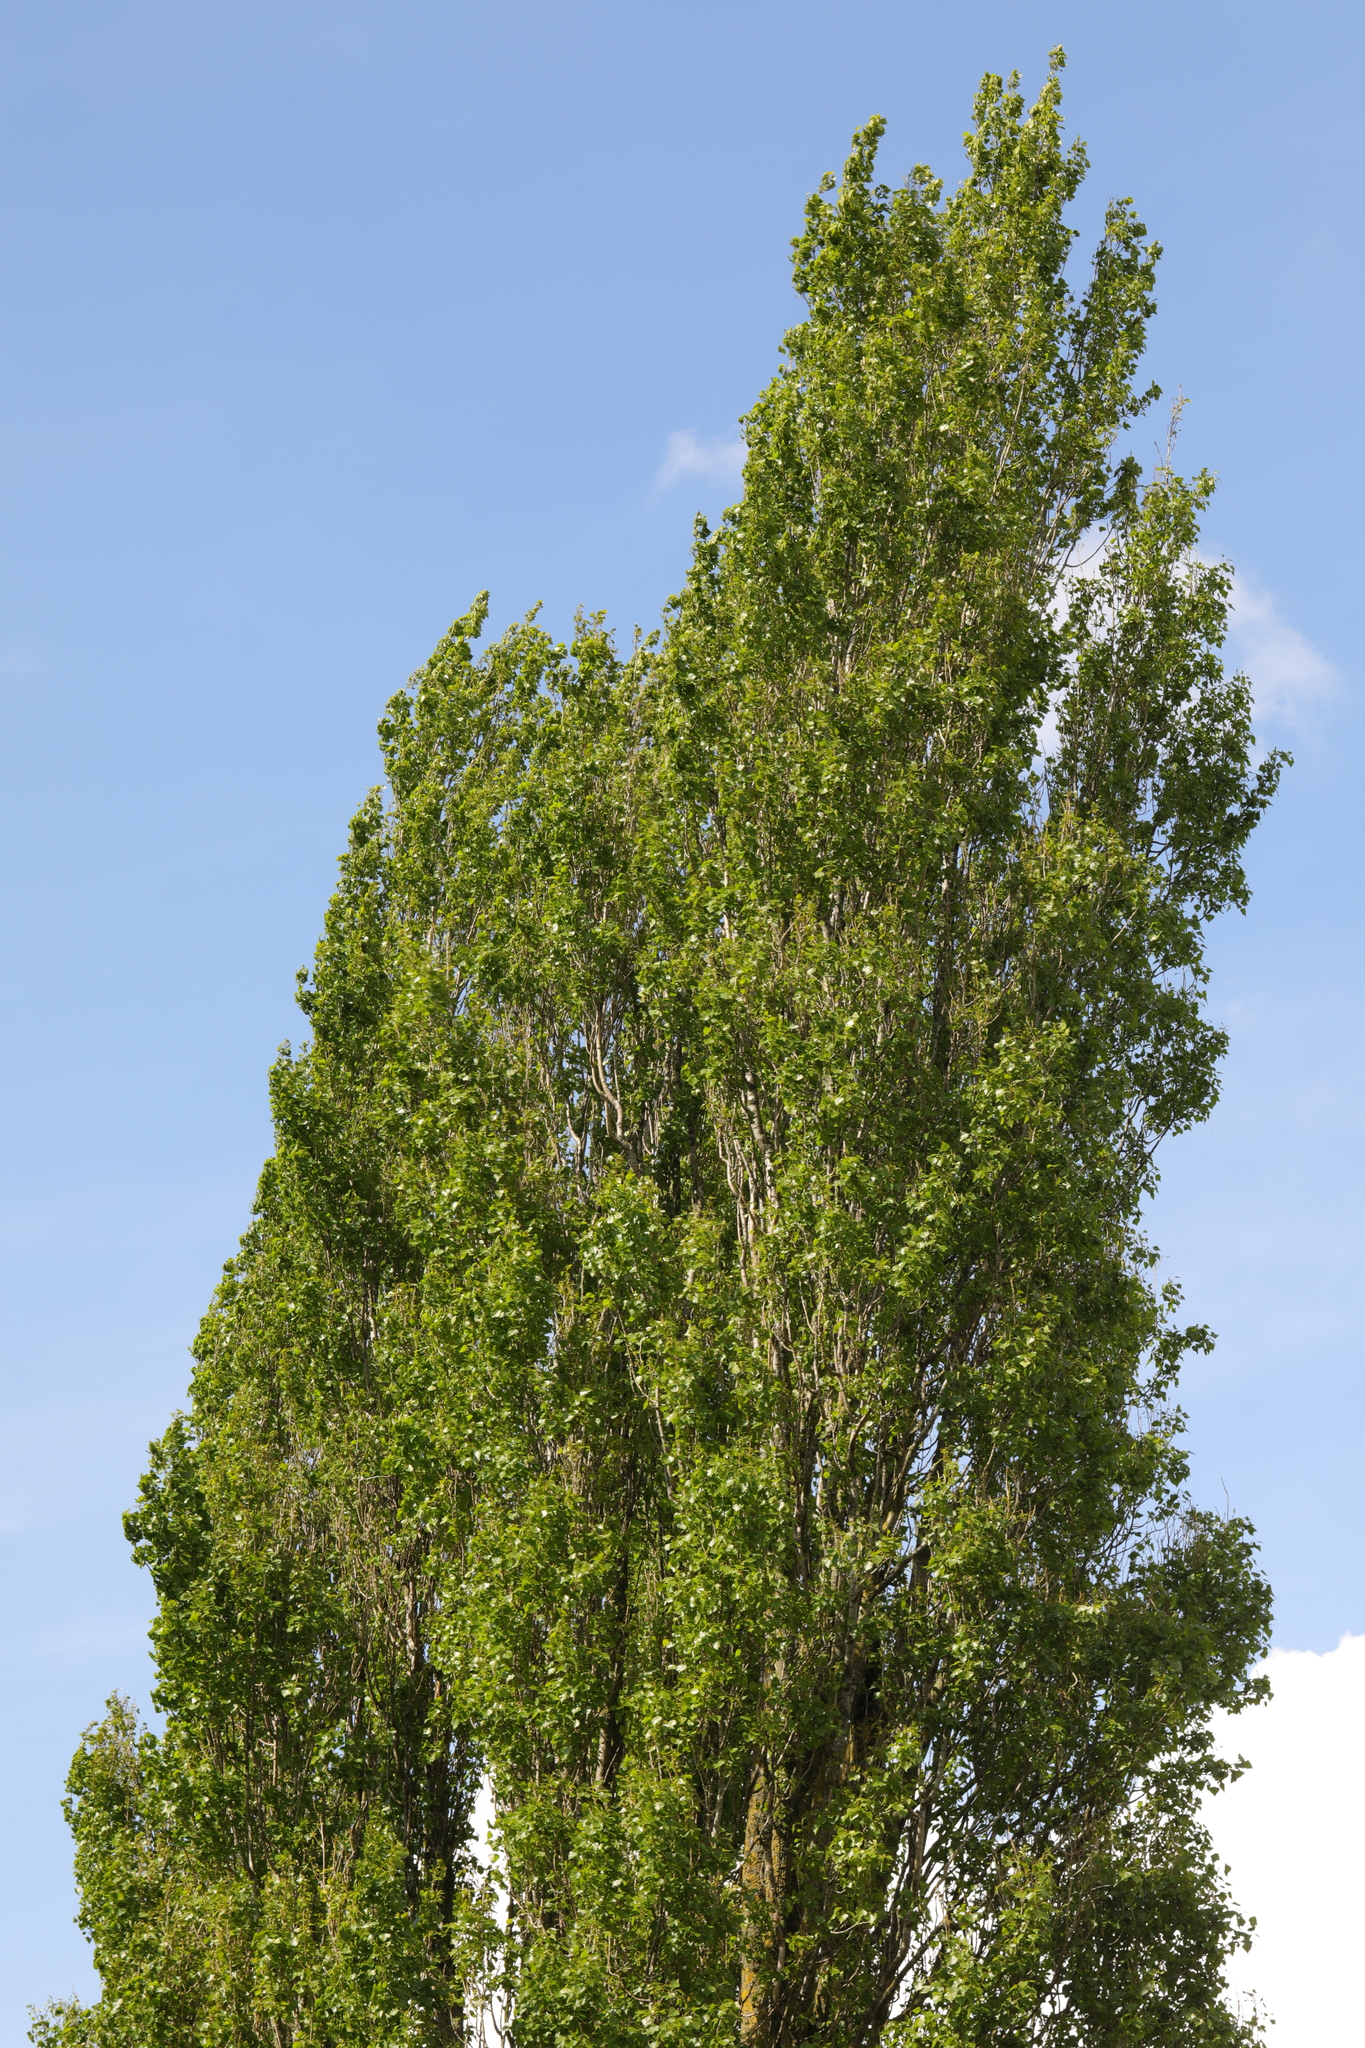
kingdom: Plantae
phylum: Tracheophyta
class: Magnoliopsida
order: Malpighiales
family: Salicaceae
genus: Populus
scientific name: Populus nigra
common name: Black poplar
